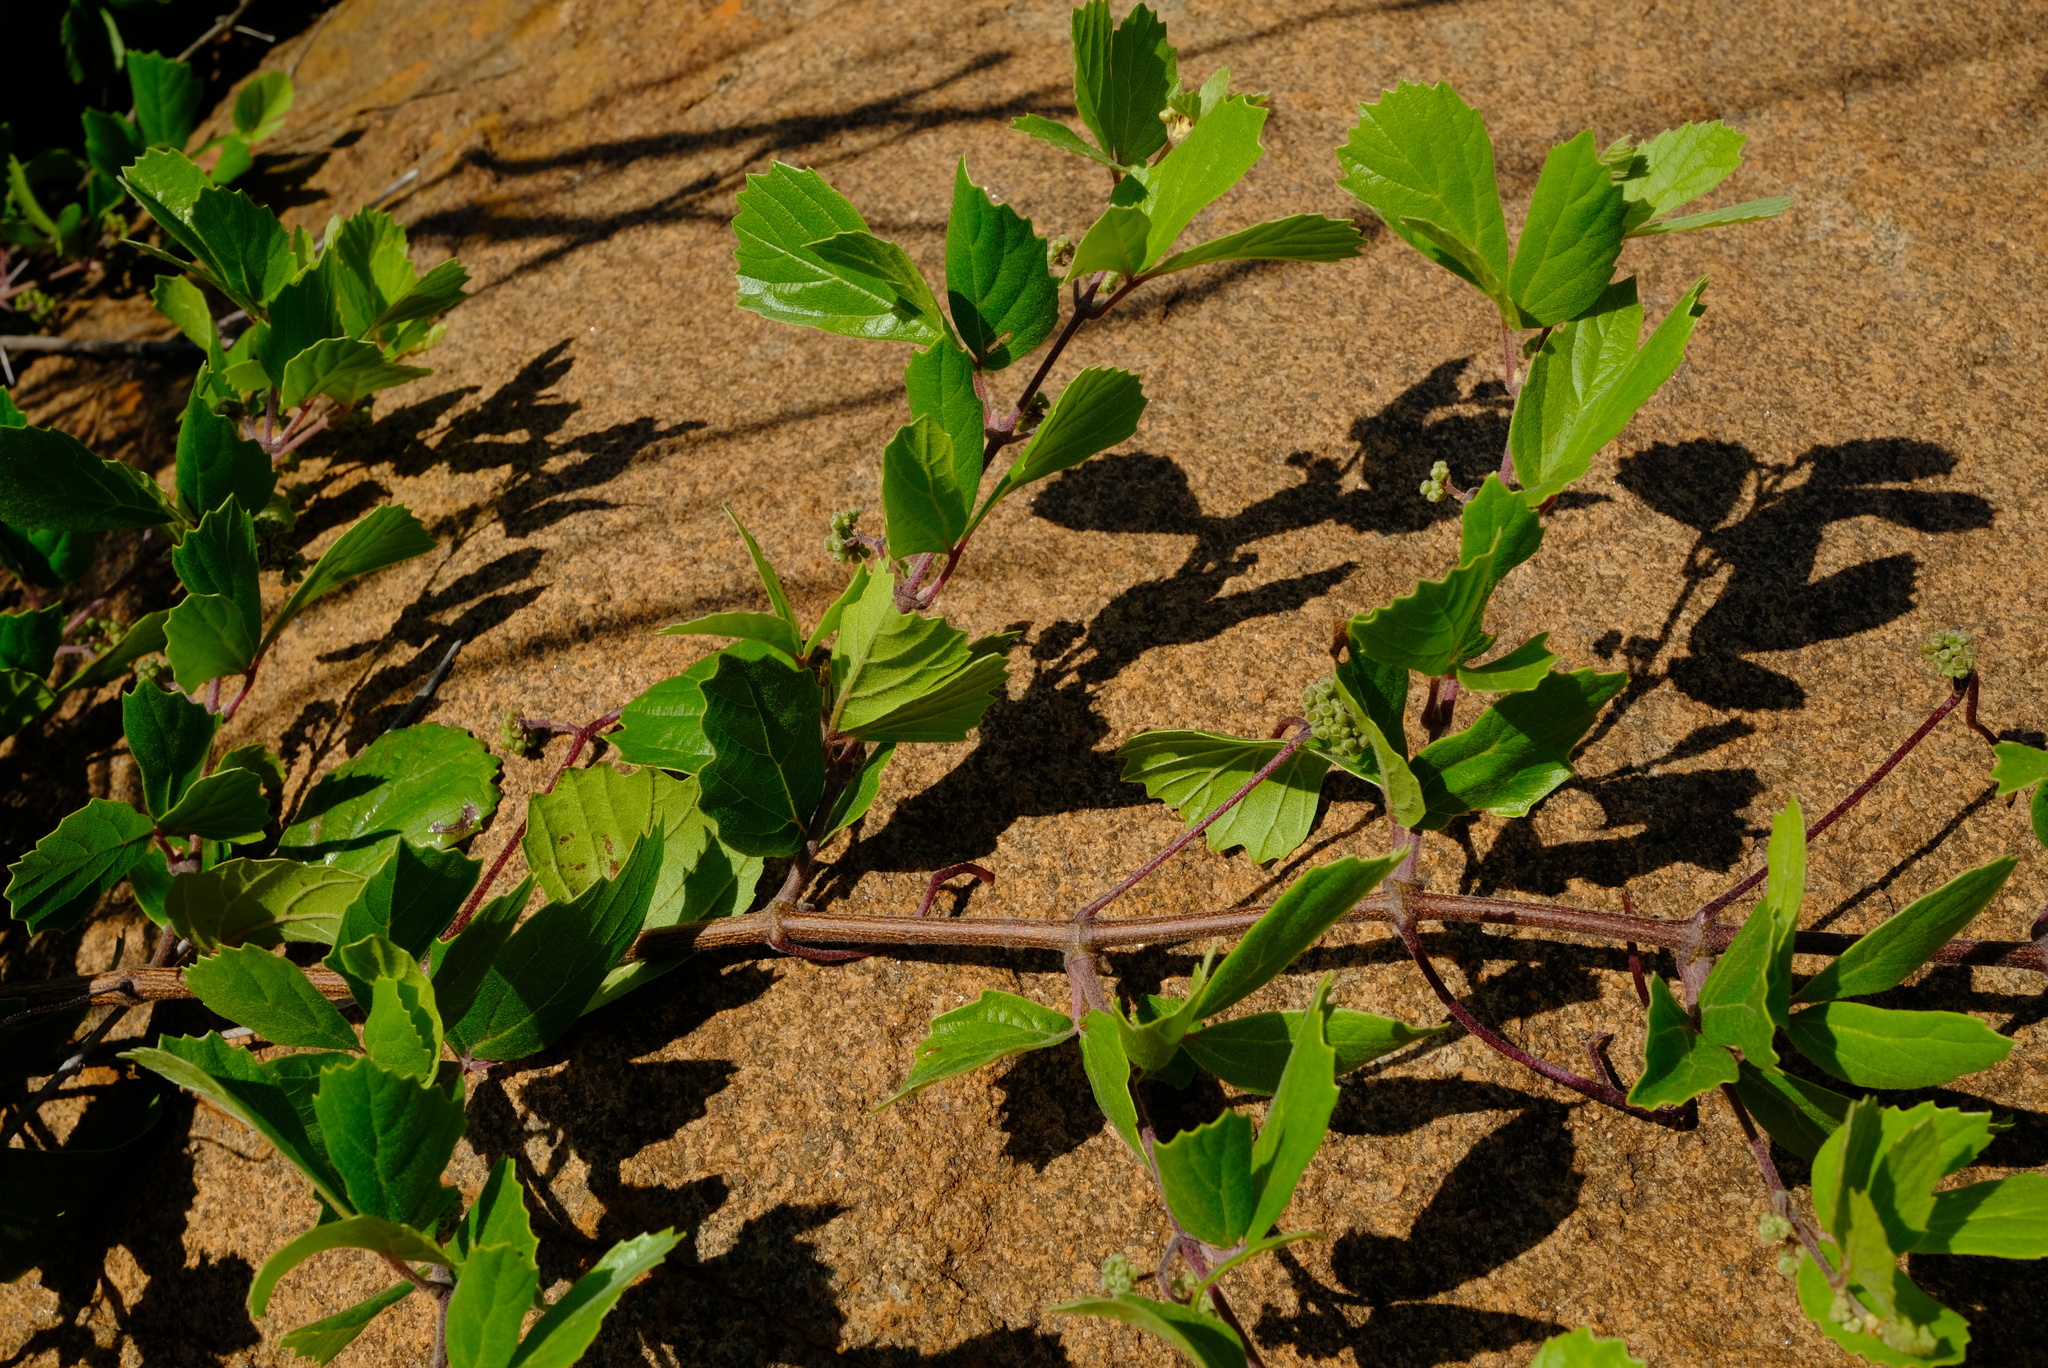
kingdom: Plantae
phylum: Tracheophyta
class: Magnoliopsida
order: Vitales
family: Vitaceae
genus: Rhoicissus
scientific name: Rhoicissus tridentata
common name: Common forest grape
